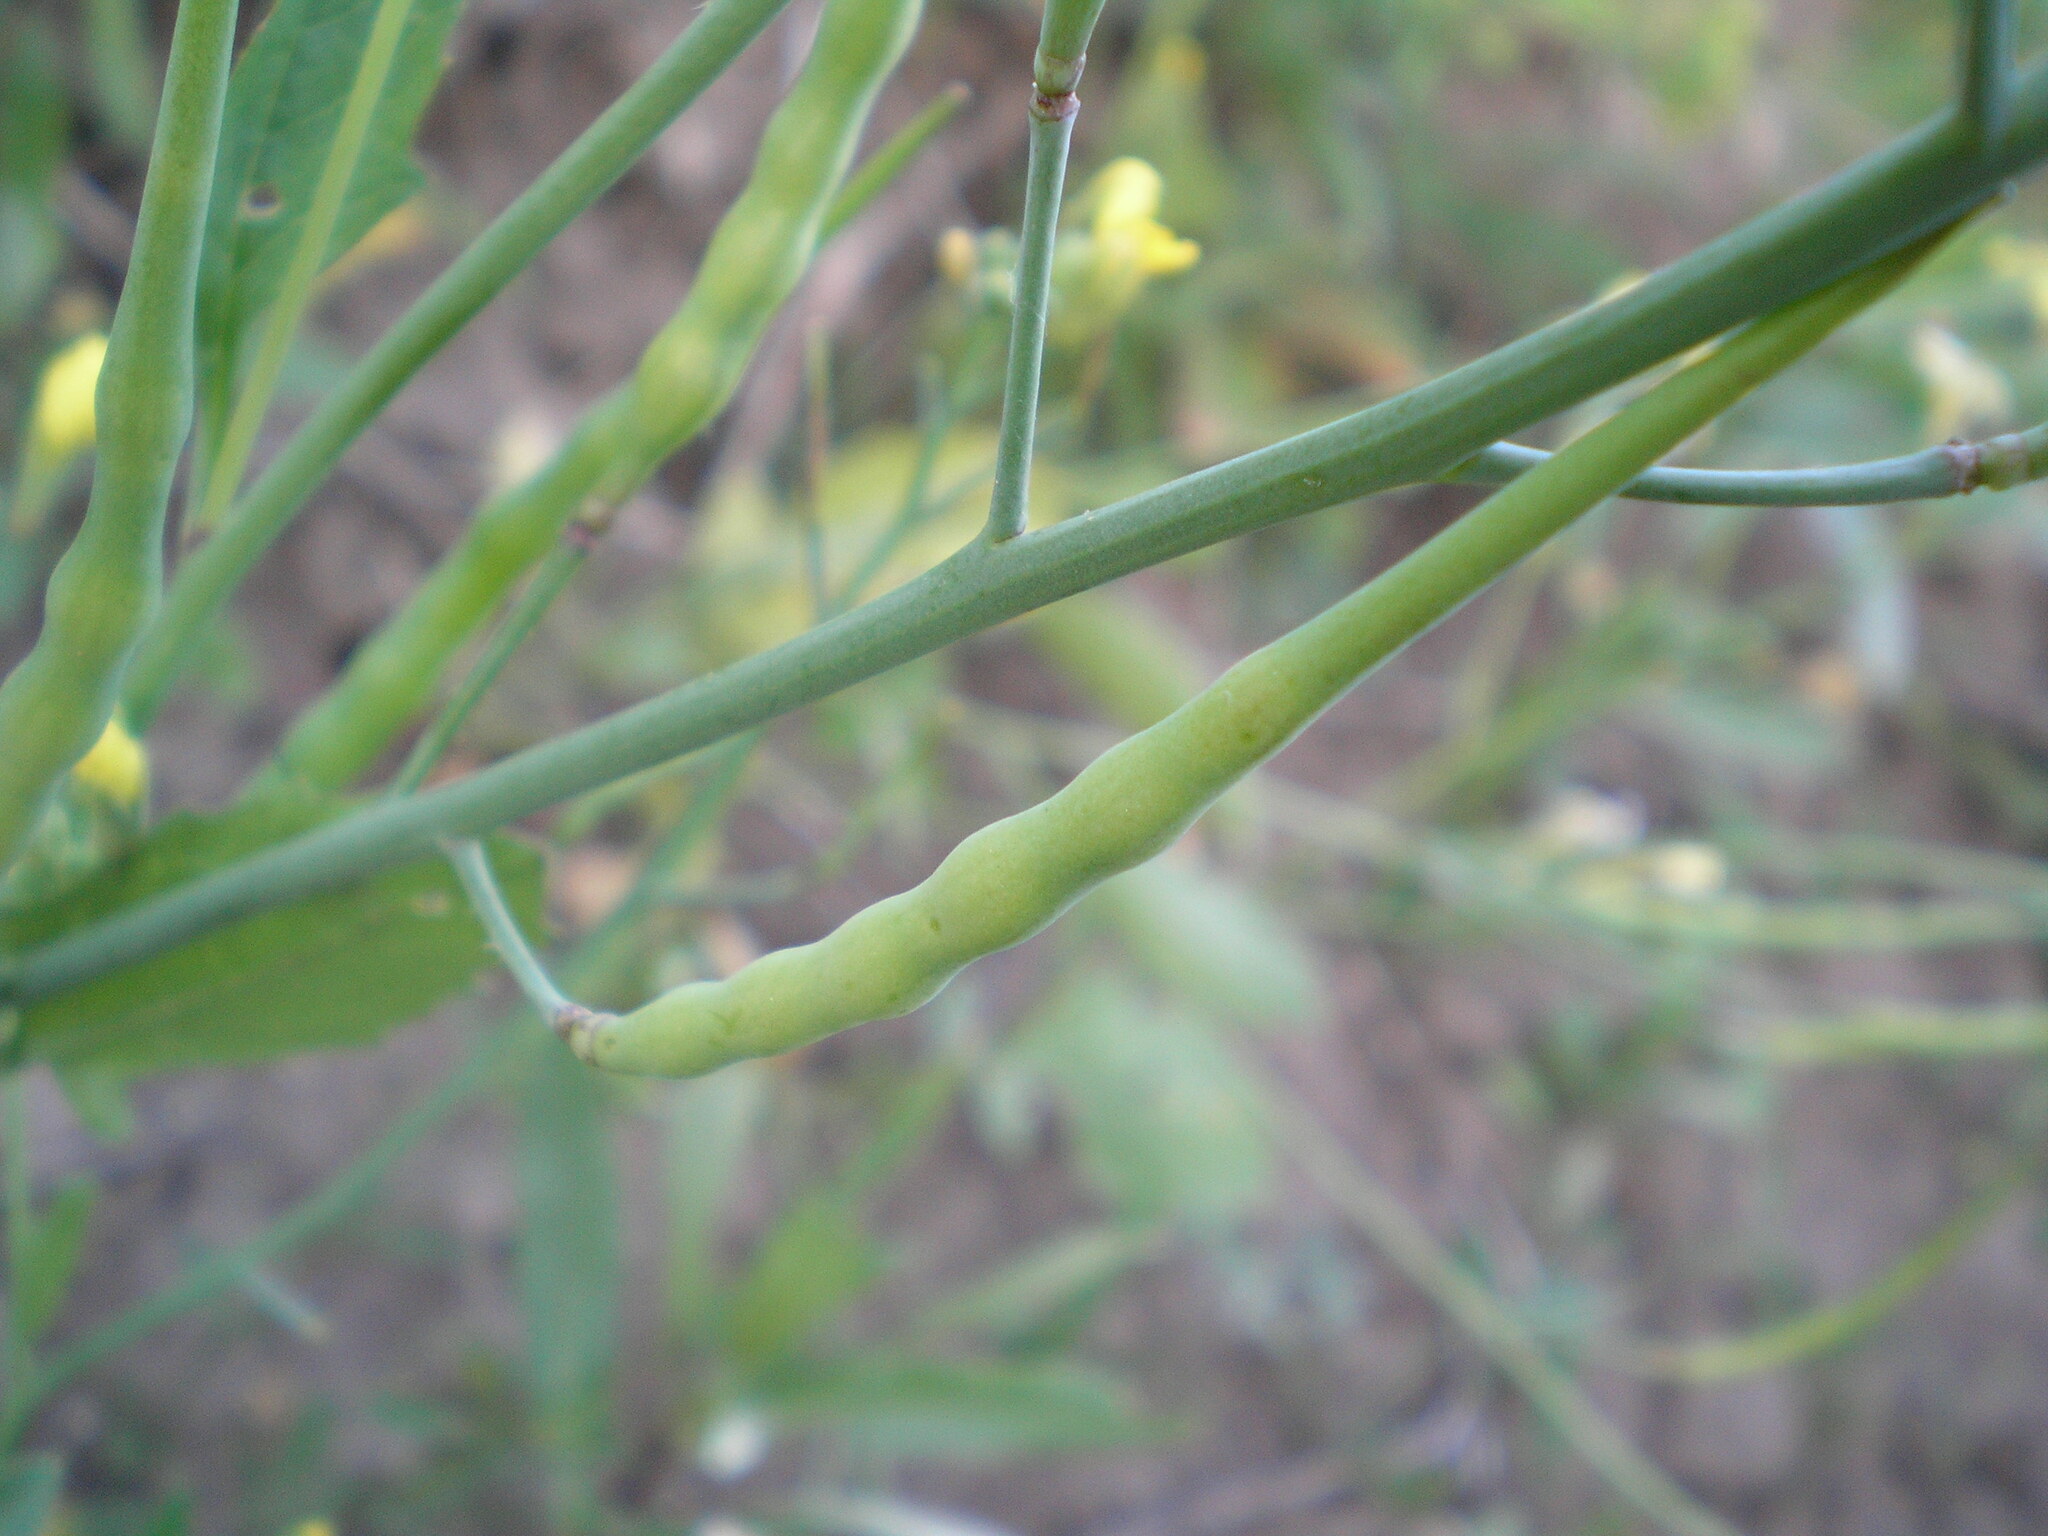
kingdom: Plantae
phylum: Tracheophyta
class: Magnoliopsida
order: Brassicales
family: Brassicaceae
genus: Raphanus
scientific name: Raphanus raphanistrum
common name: Wild radish
